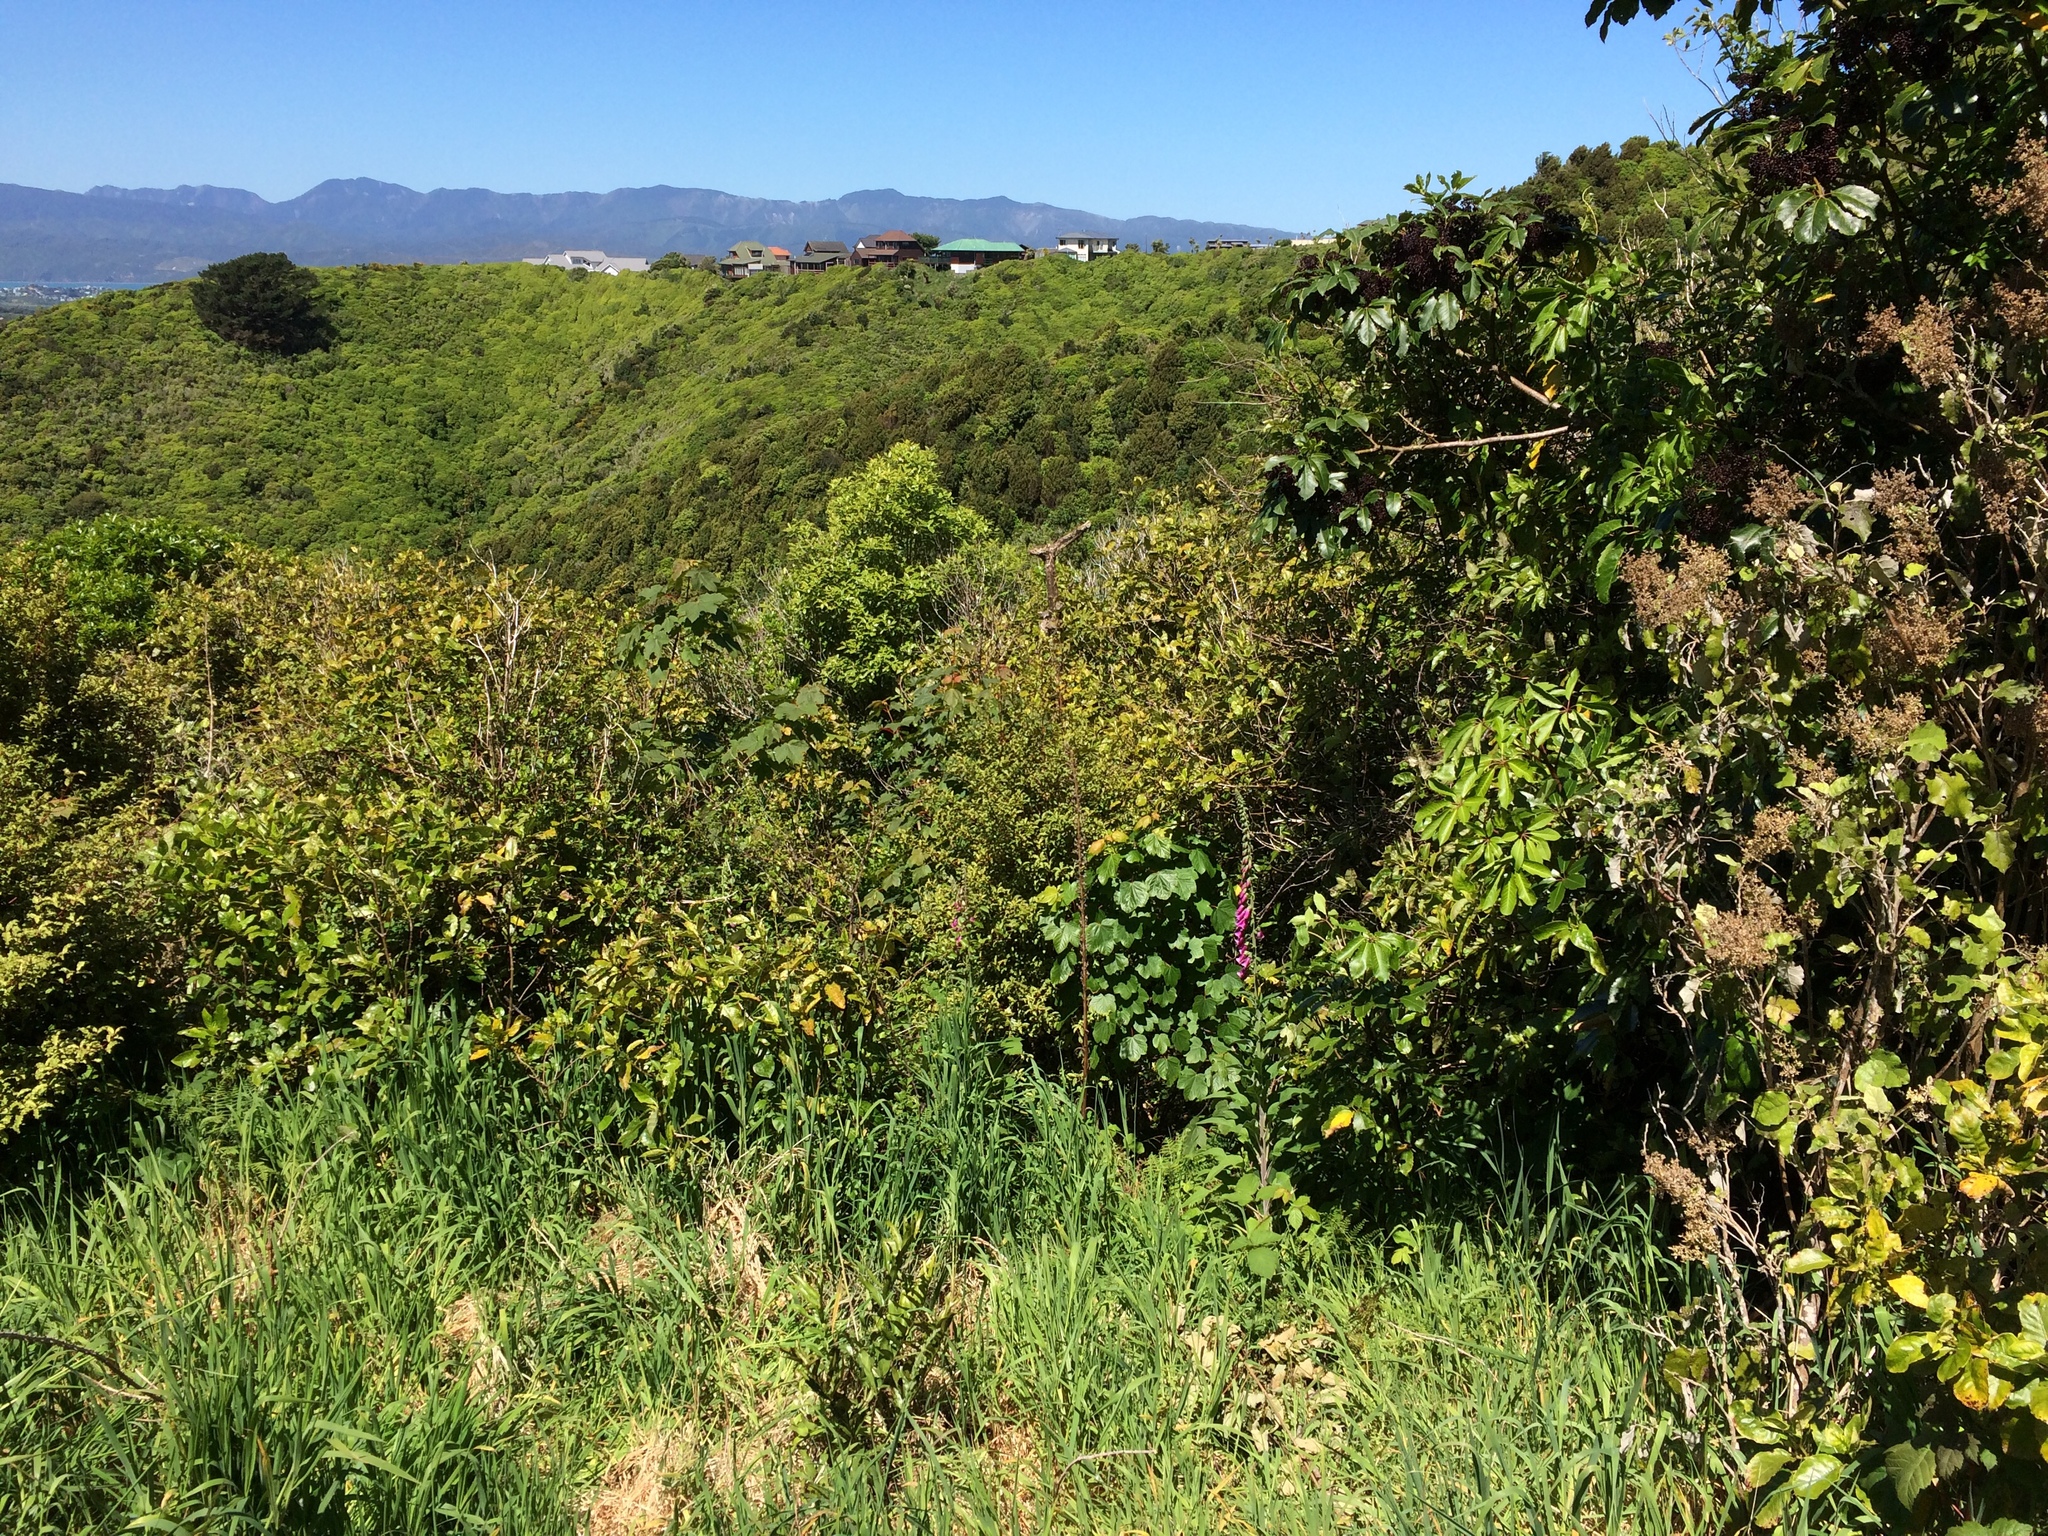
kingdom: Plantae
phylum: Tracheophyta
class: Magnoliopsida
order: Sapindales
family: Sapindaceae
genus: Acer
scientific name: Acer pseudoplatanus
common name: Sycamore
